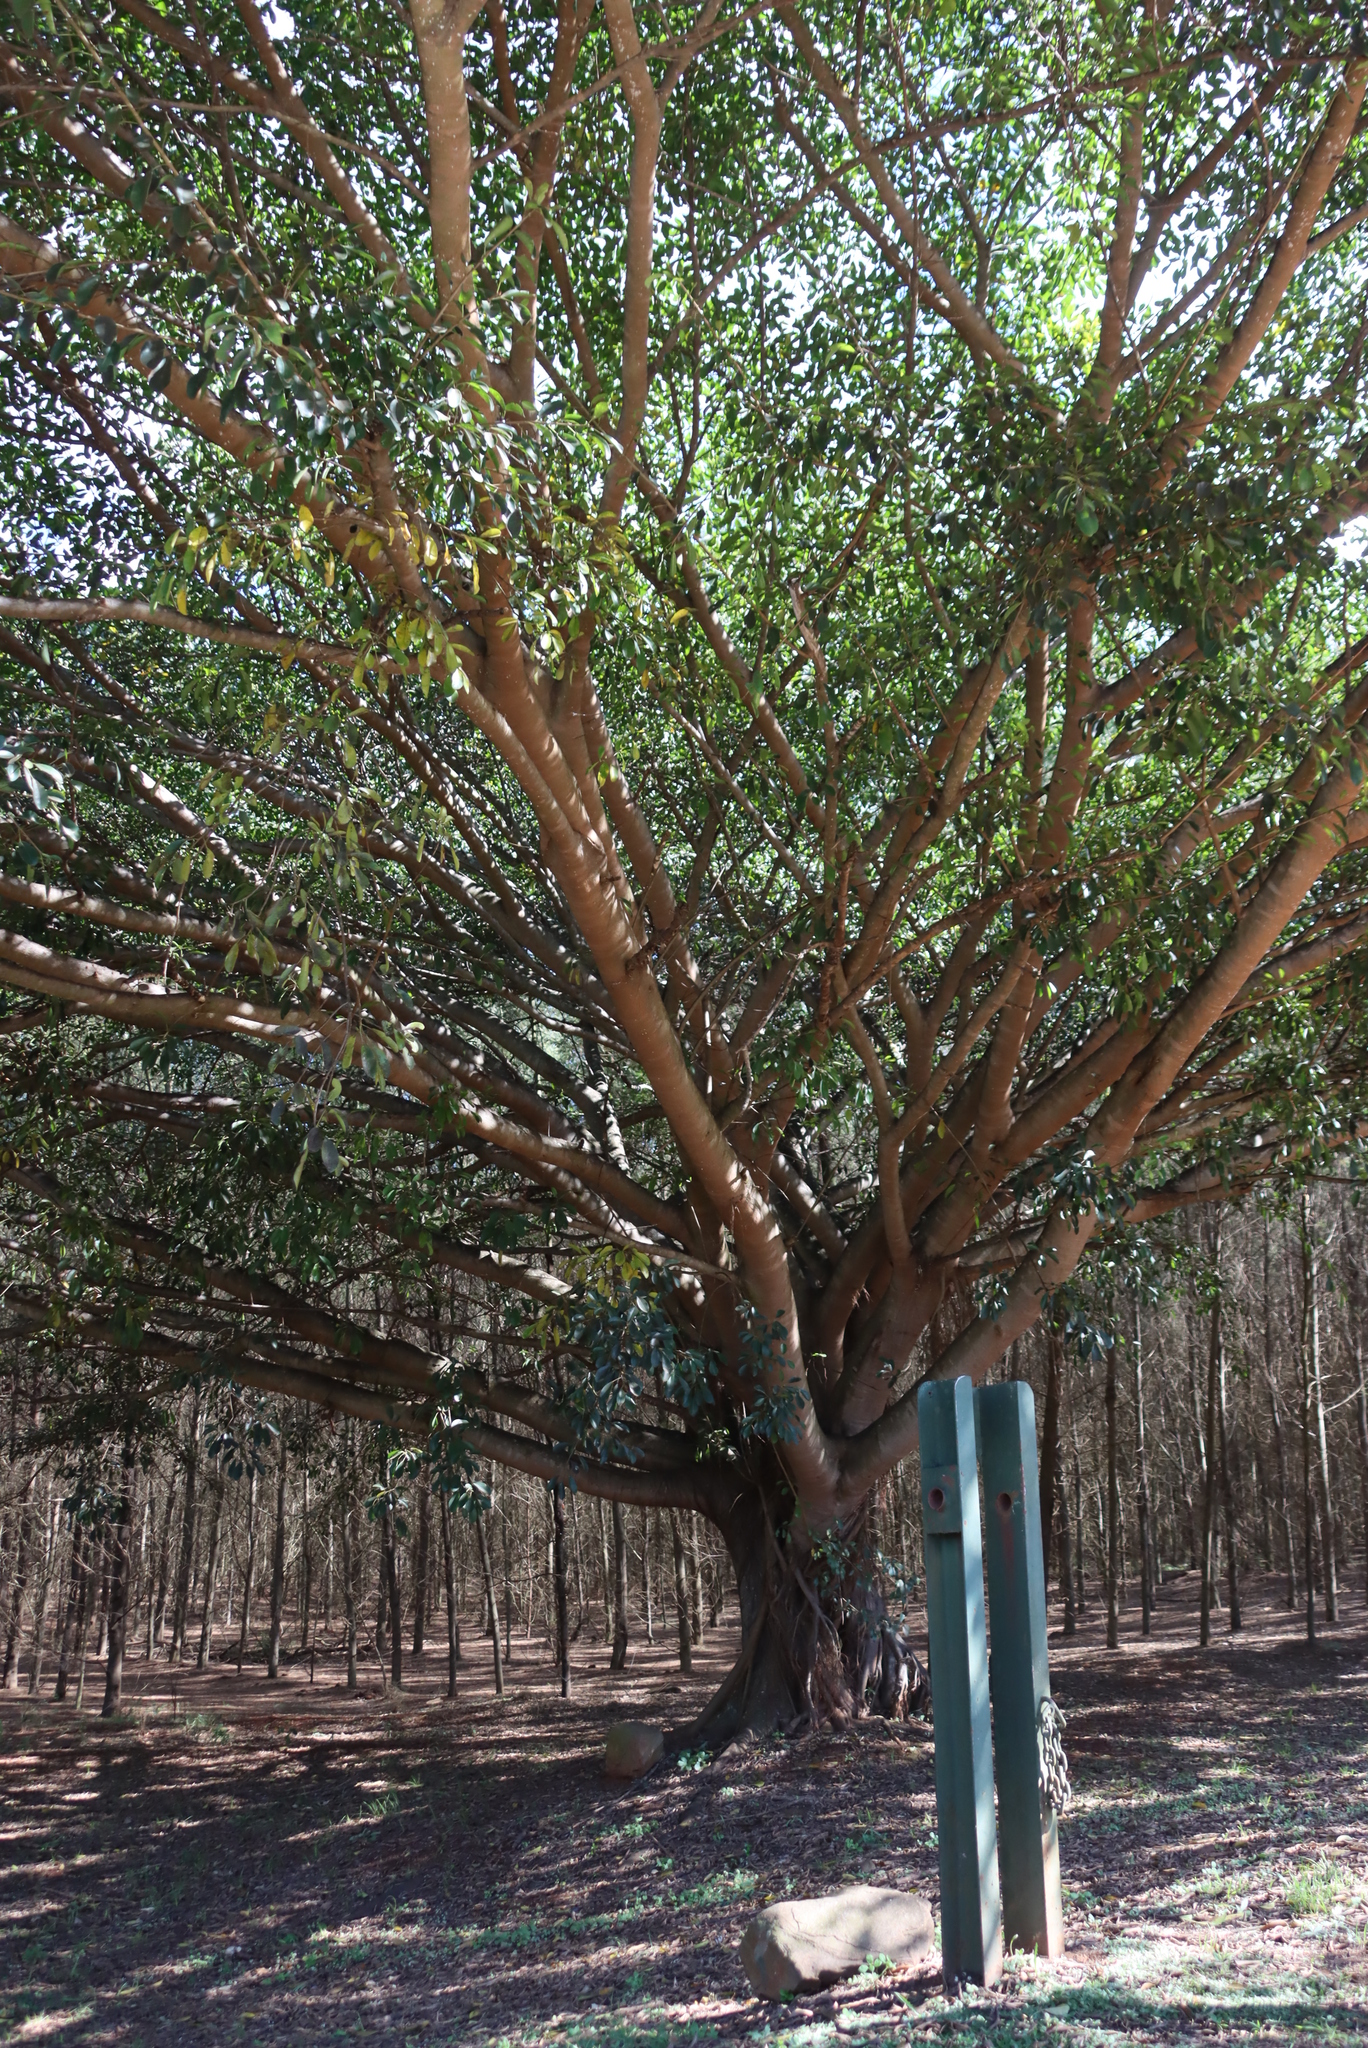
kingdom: Plantae
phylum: Tracheophyta
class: Magnoliopsida
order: Rosales
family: Moraceae
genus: Ficus
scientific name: Ficus thonningii
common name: Fig
